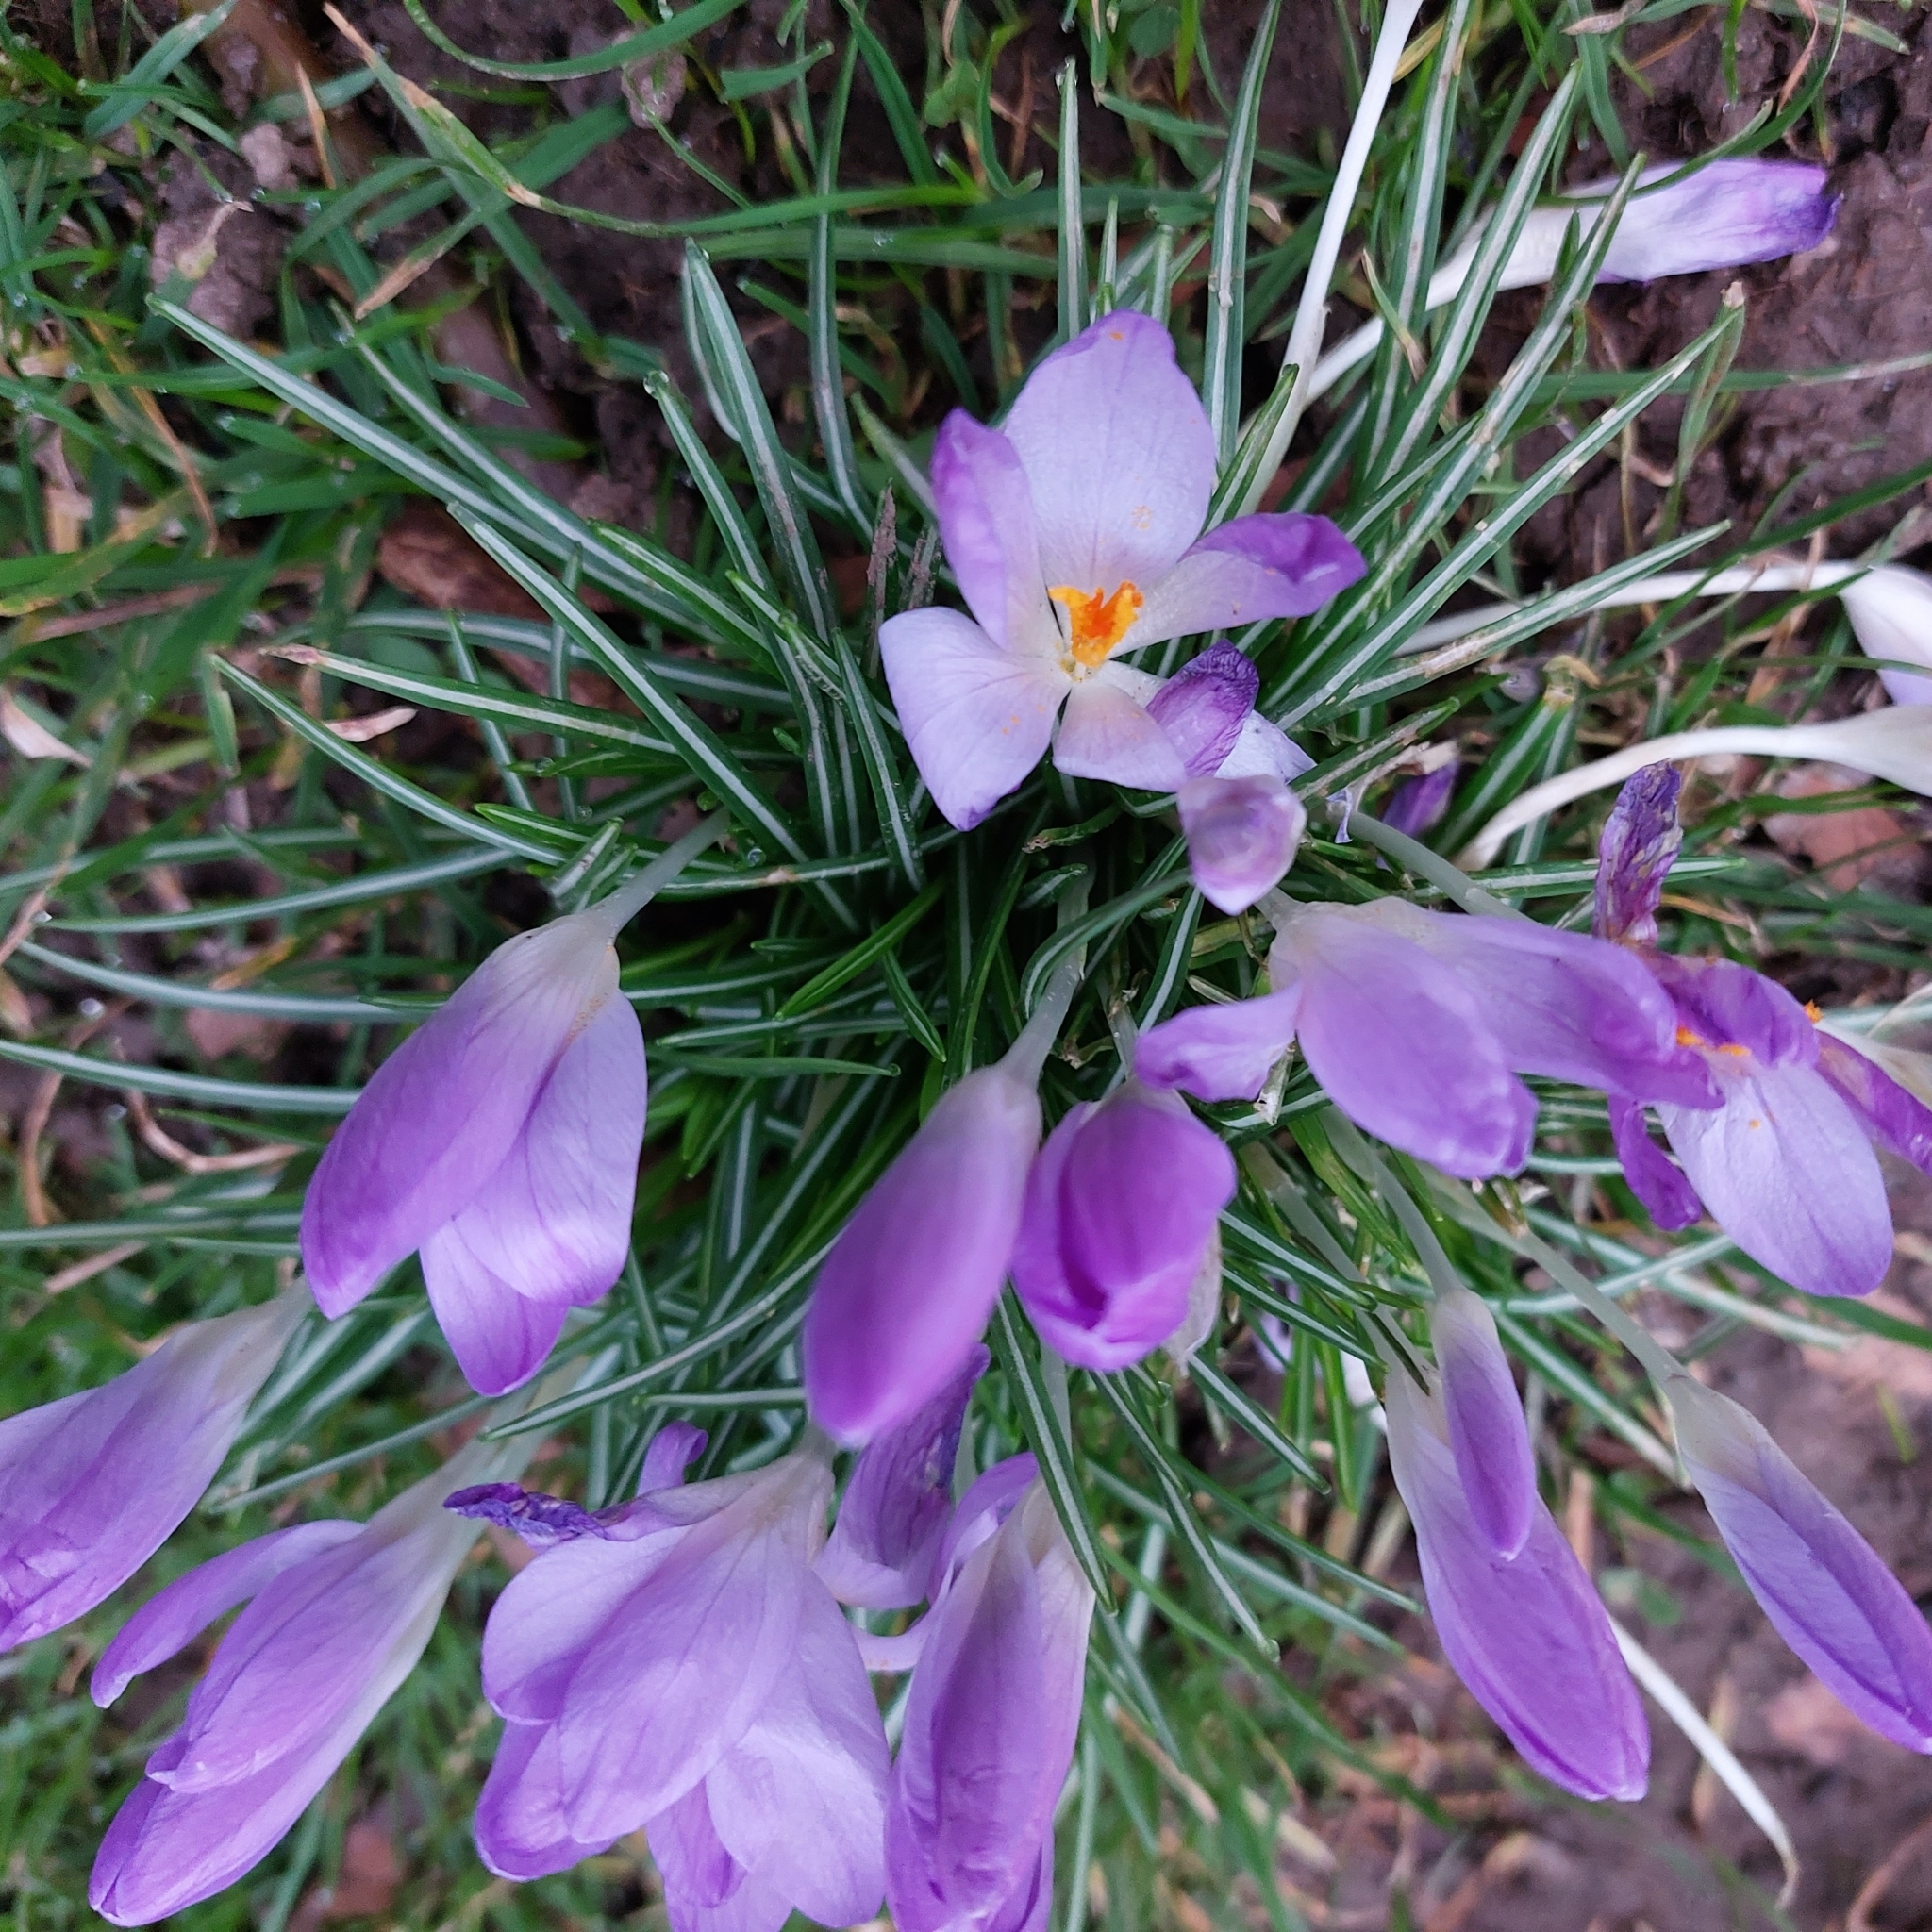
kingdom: Plantae
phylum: Tracheophyta
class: Liliopsida
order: Asparagales
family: Iridaceae
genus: Crocus
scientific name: Crocus tommasinianus
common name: Early crocus
